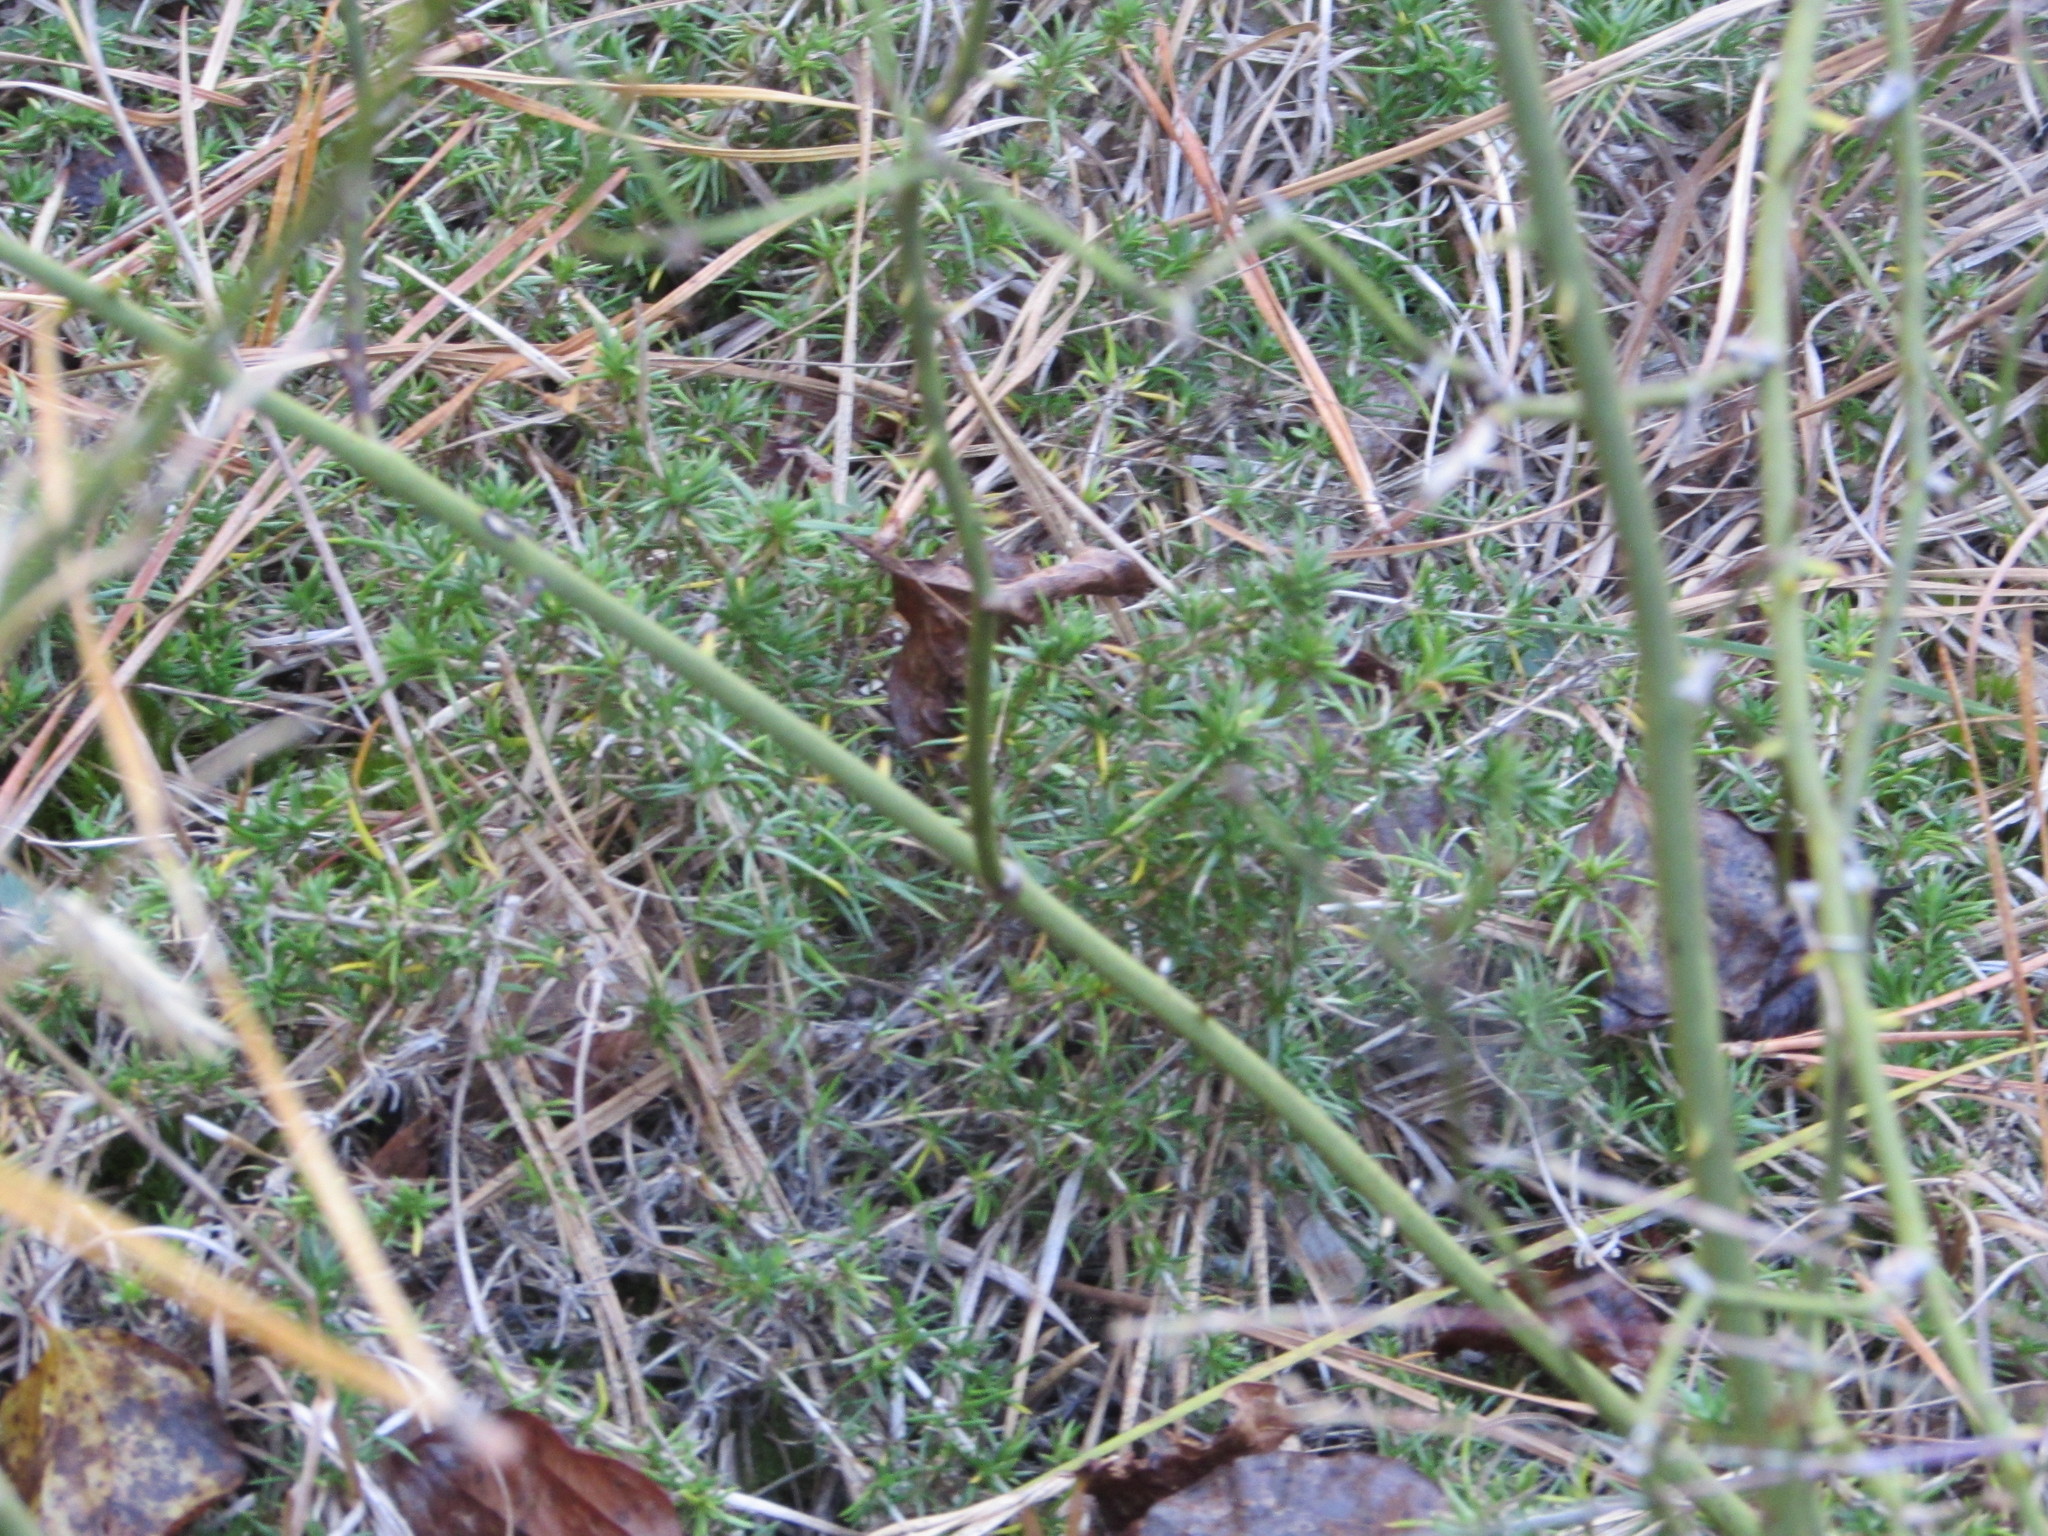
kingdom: Plantae
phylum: Tracheophyta
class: Magnoliopsida
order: Ericales
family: Polemoniaceae
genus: Phlox
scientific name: Phlox subulata
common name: Moss phlox
